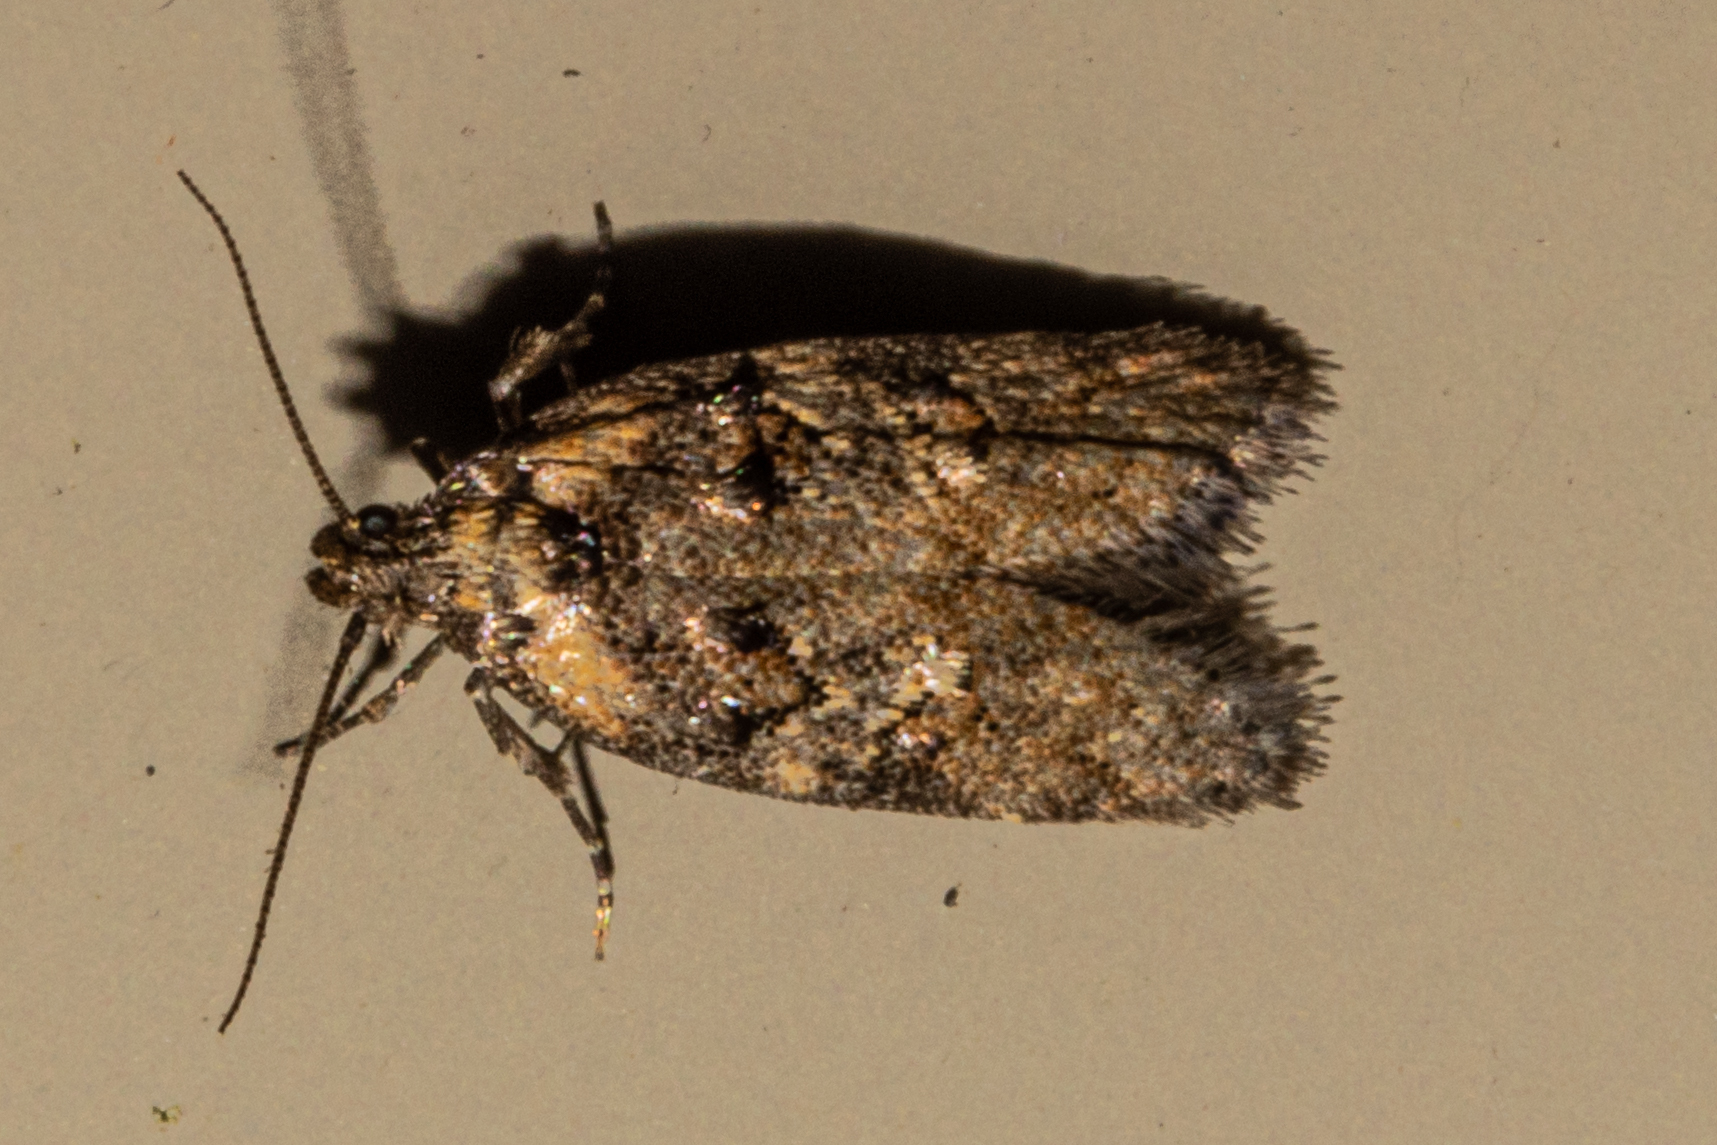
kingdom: Animalia
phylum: Arthropoda
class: Insecta
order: Lepidoptera
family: Oecophoridae
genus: Trachypepla
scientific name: Trachypepla anastrella
